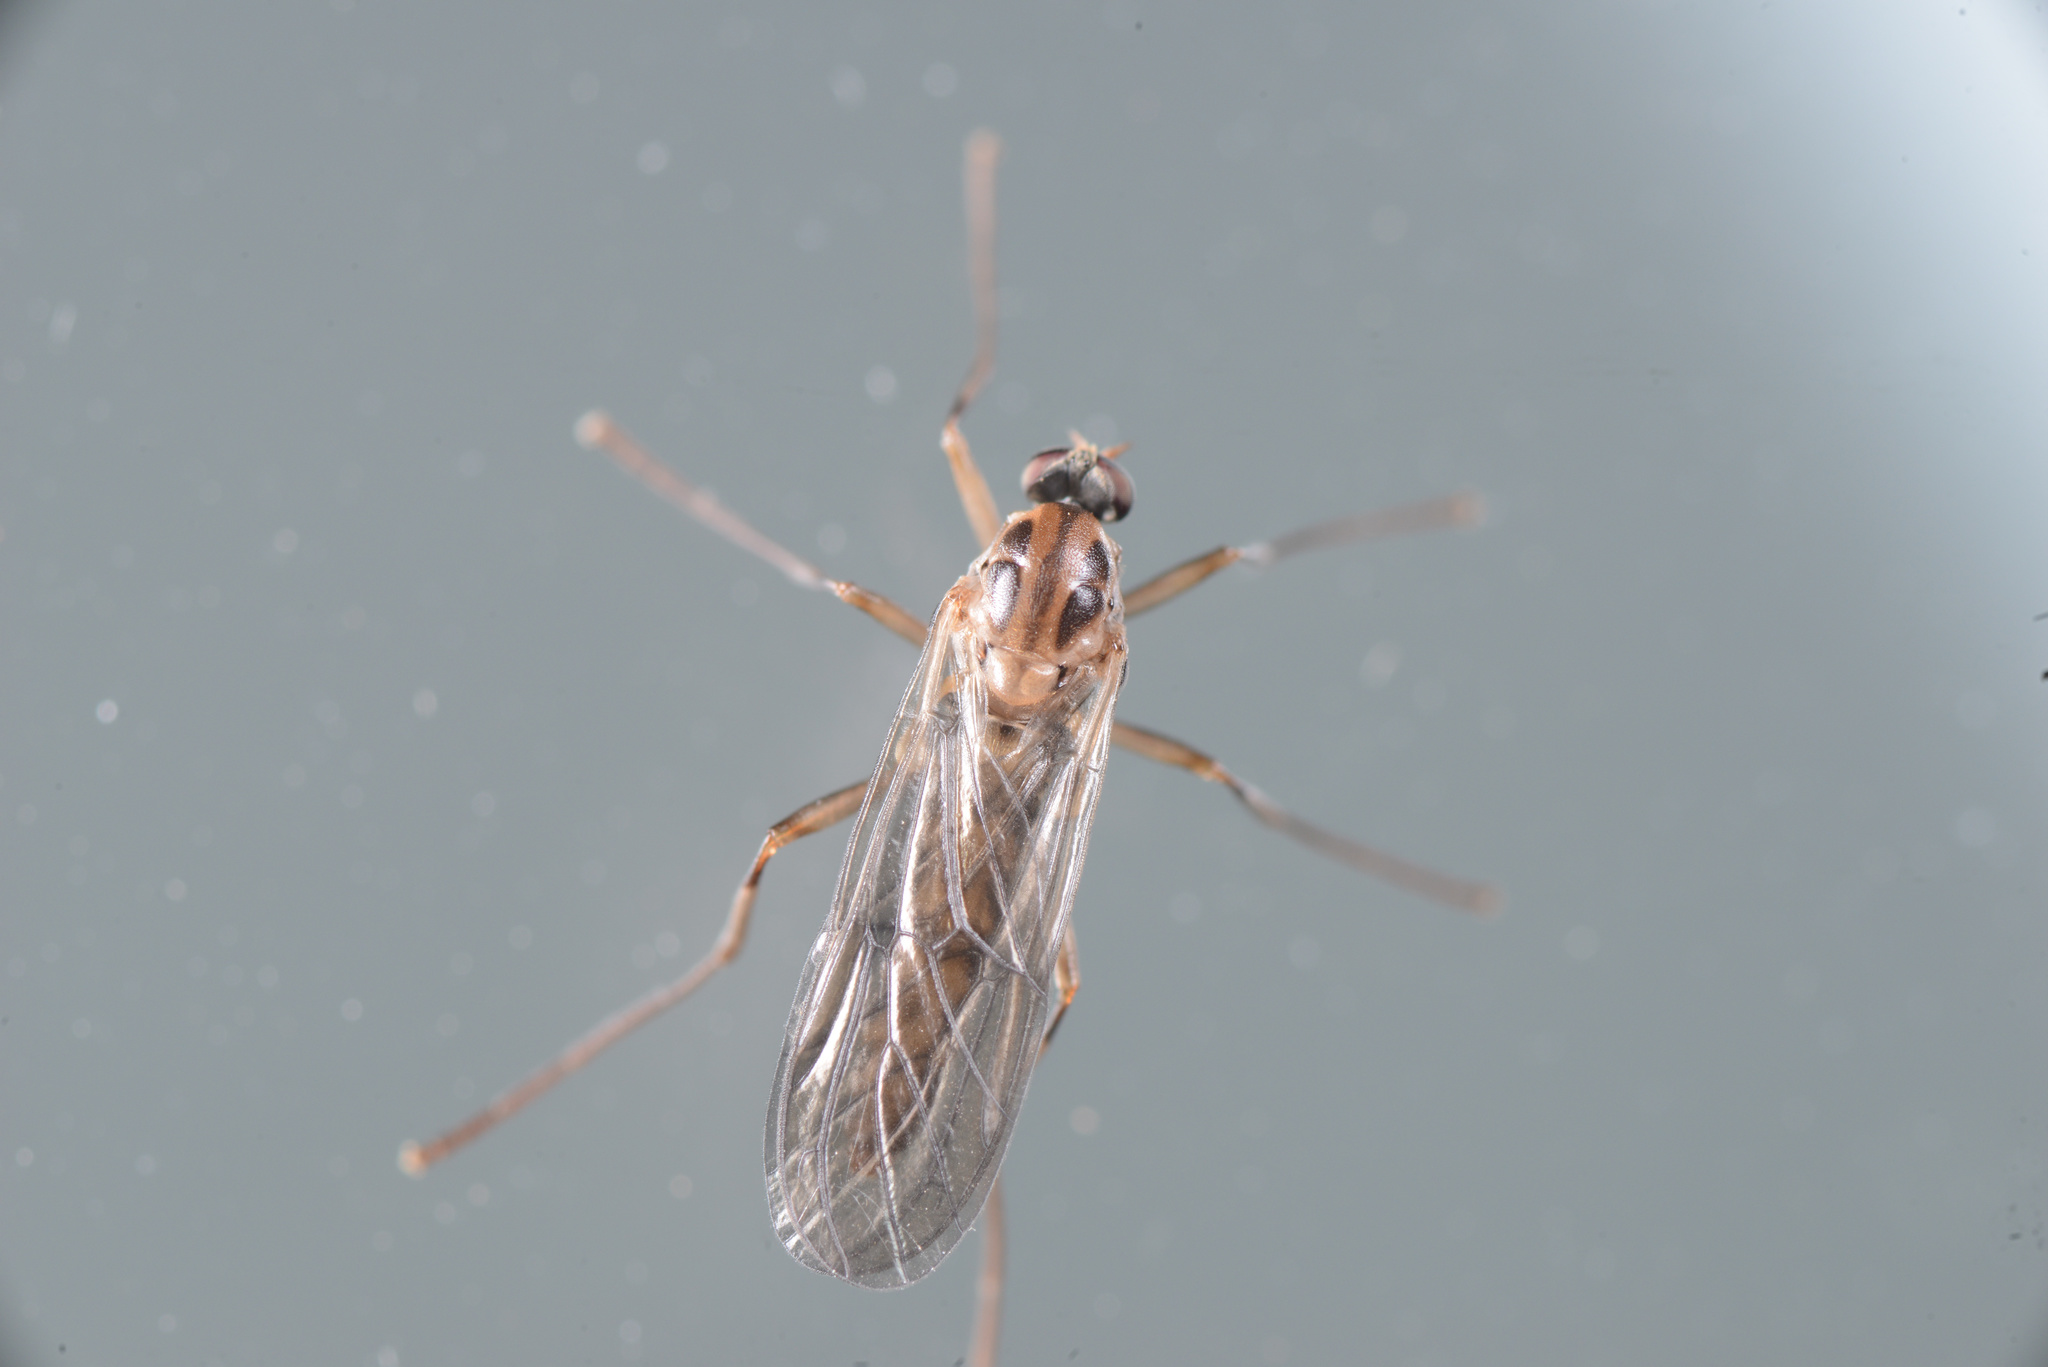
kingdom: Animalia
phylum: Arthropoda
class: Insecta
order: Diptera
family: Stratiomyidae
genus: Boreoides
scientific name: Boreoides tasmaniensis
